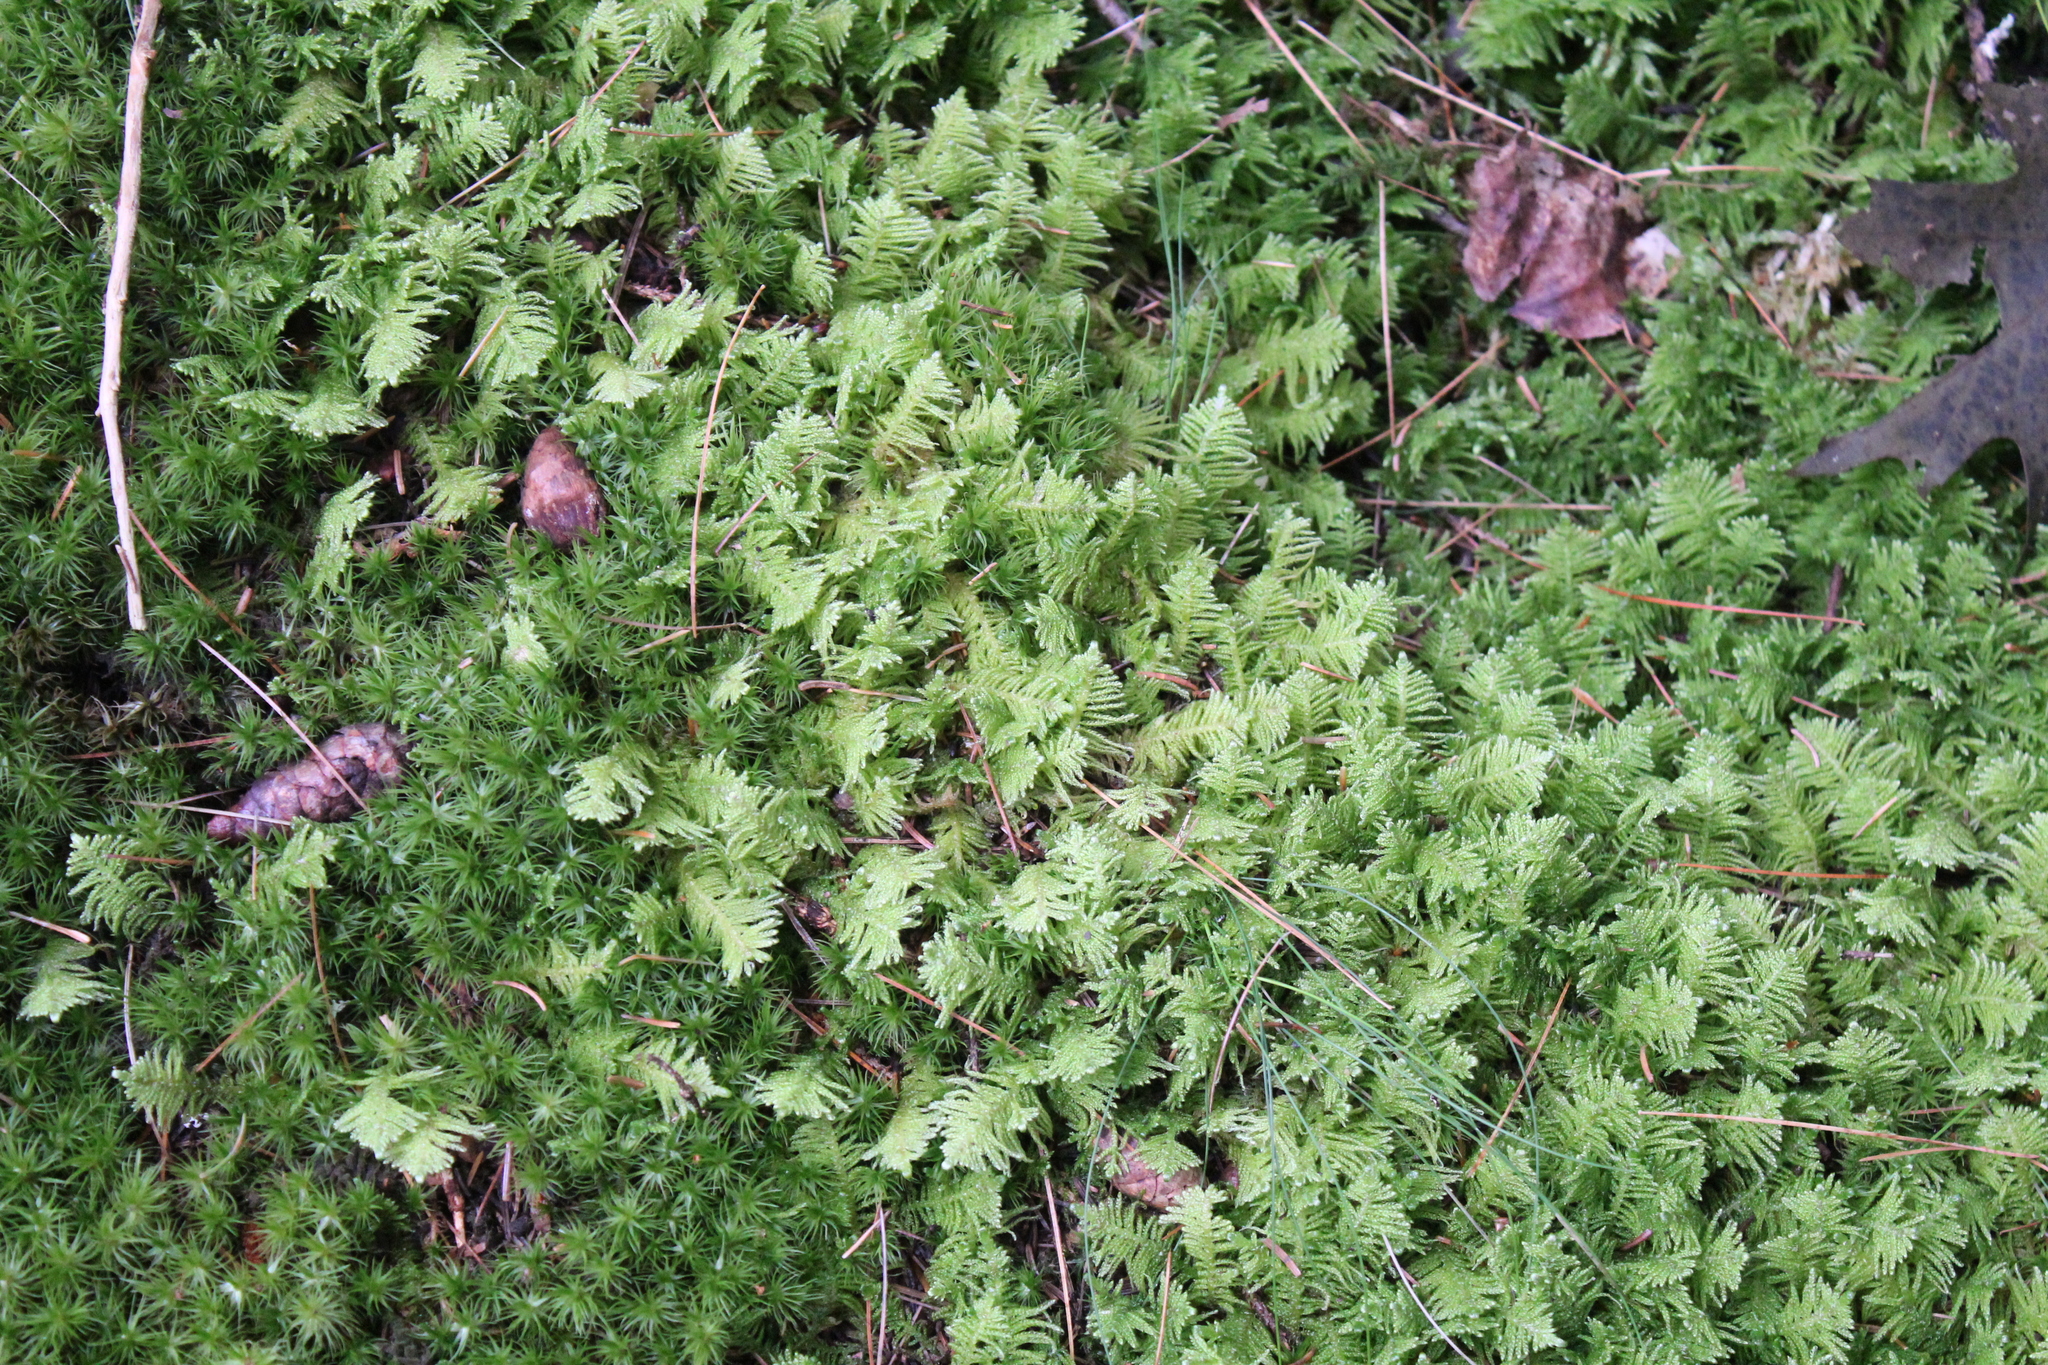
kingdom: Plantae
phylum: Bryophyta
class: Bryopsida
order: Hypnales
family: Pylaisiaceae
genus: Ptilium
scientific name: Ptilium crista-castrensis
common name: Knight's plume moss
